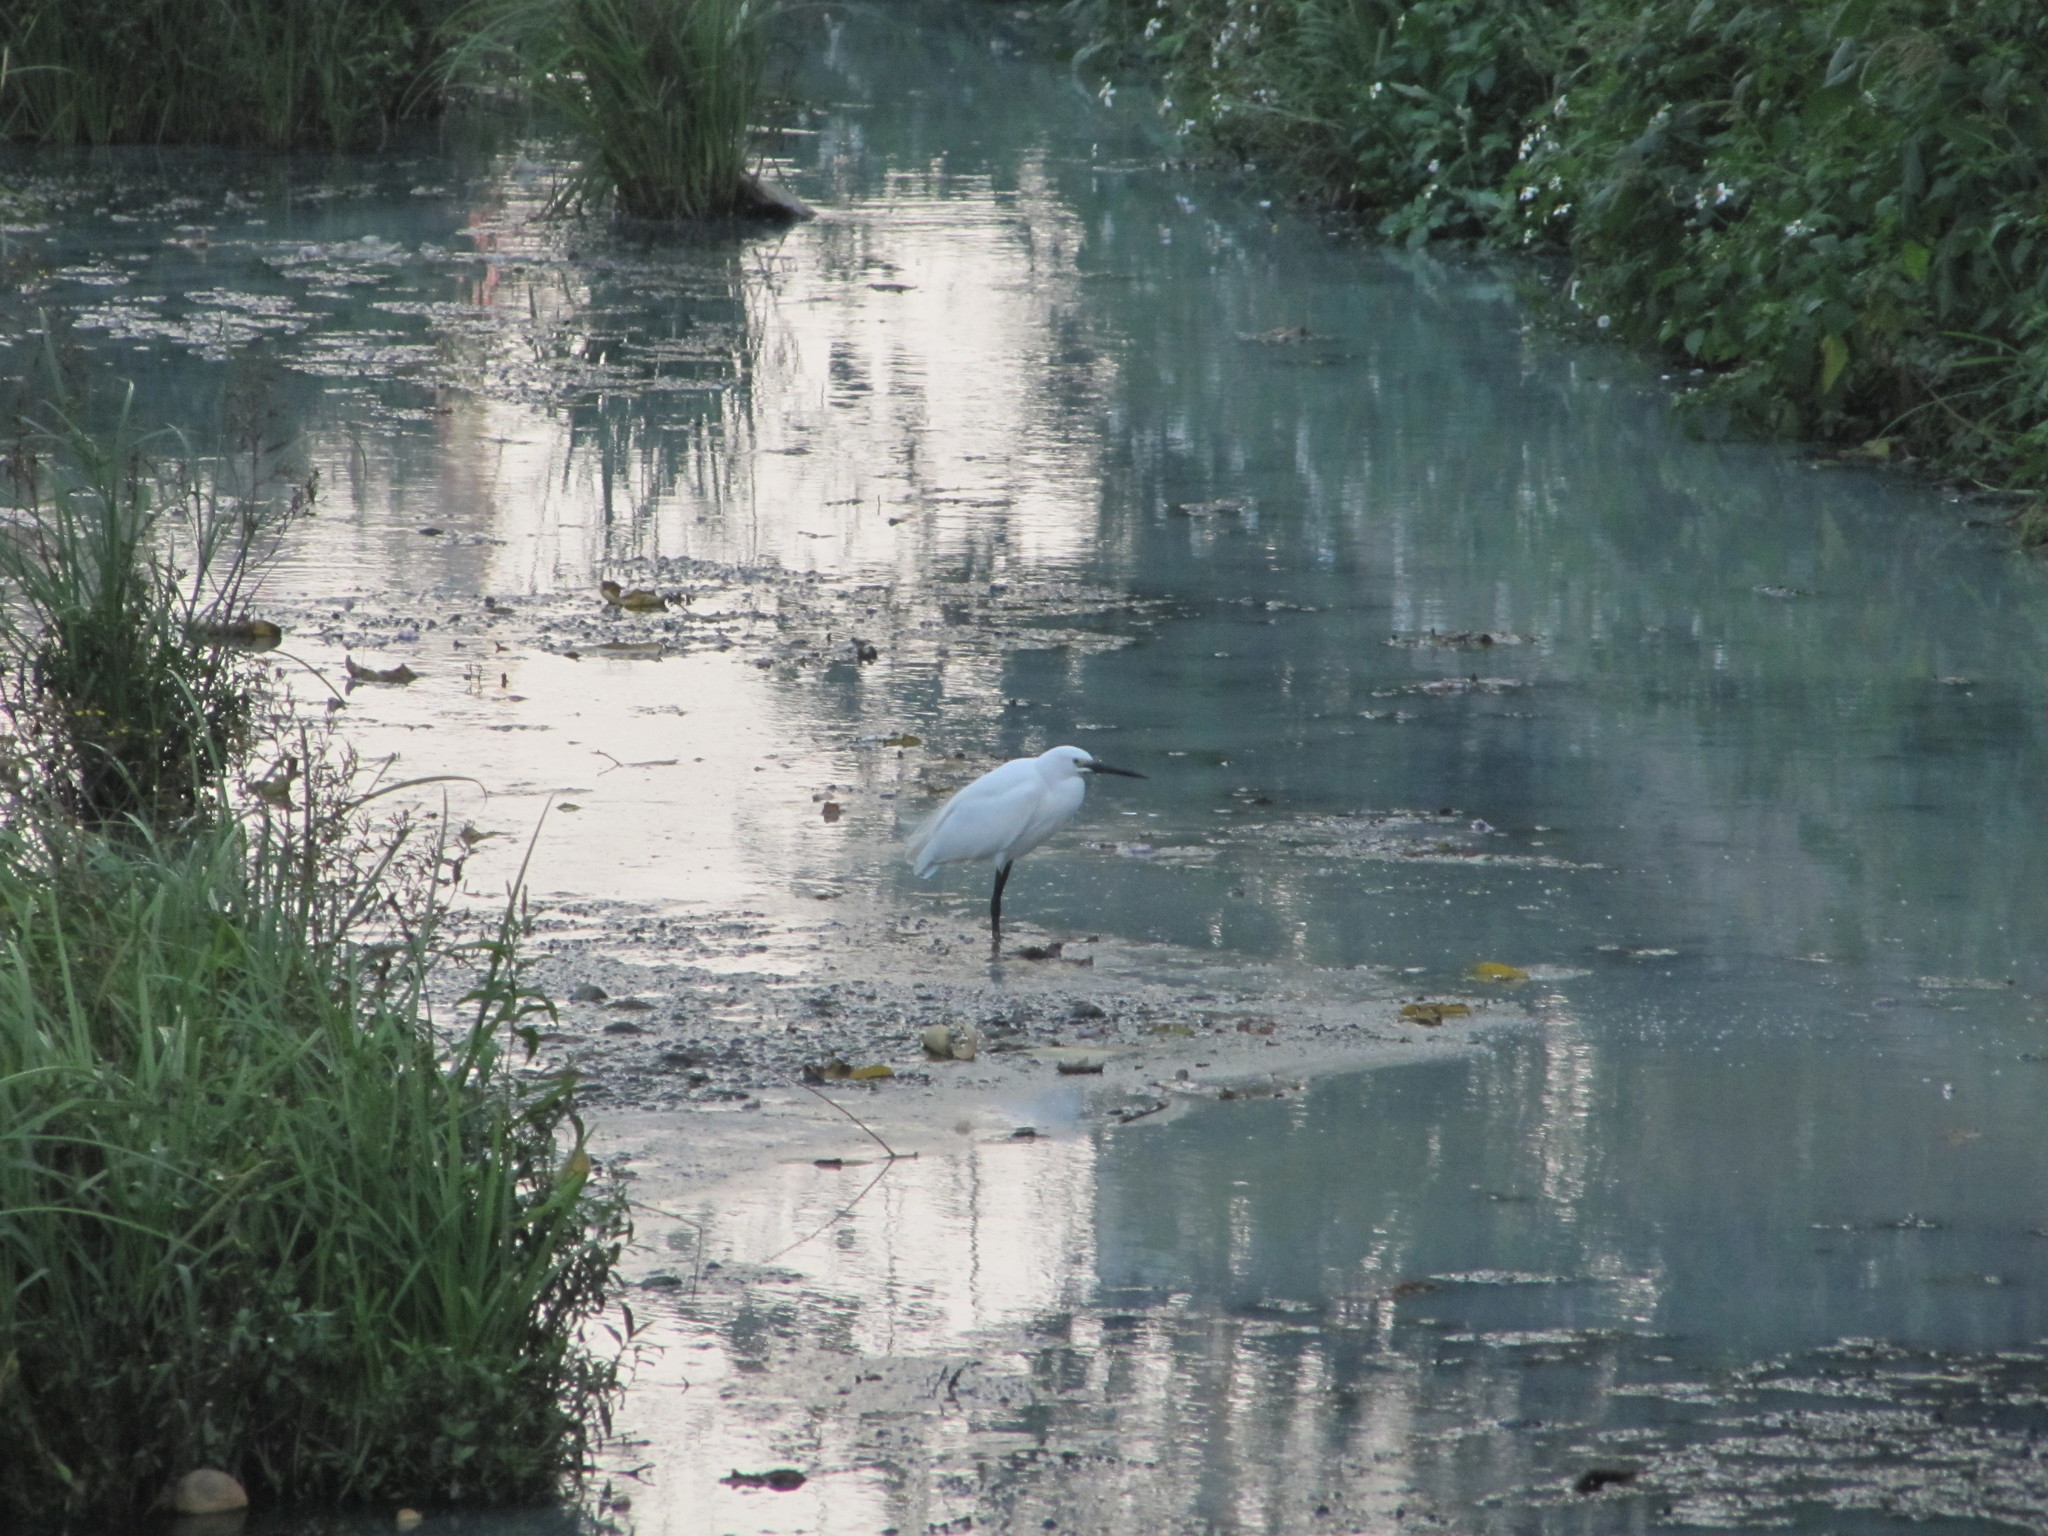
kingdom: Animalia
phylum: Chordata
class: Aves
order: Pelecaniformes
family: Ardeidae
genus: Egretta
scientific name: Egretta garzetta
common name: Little egret
